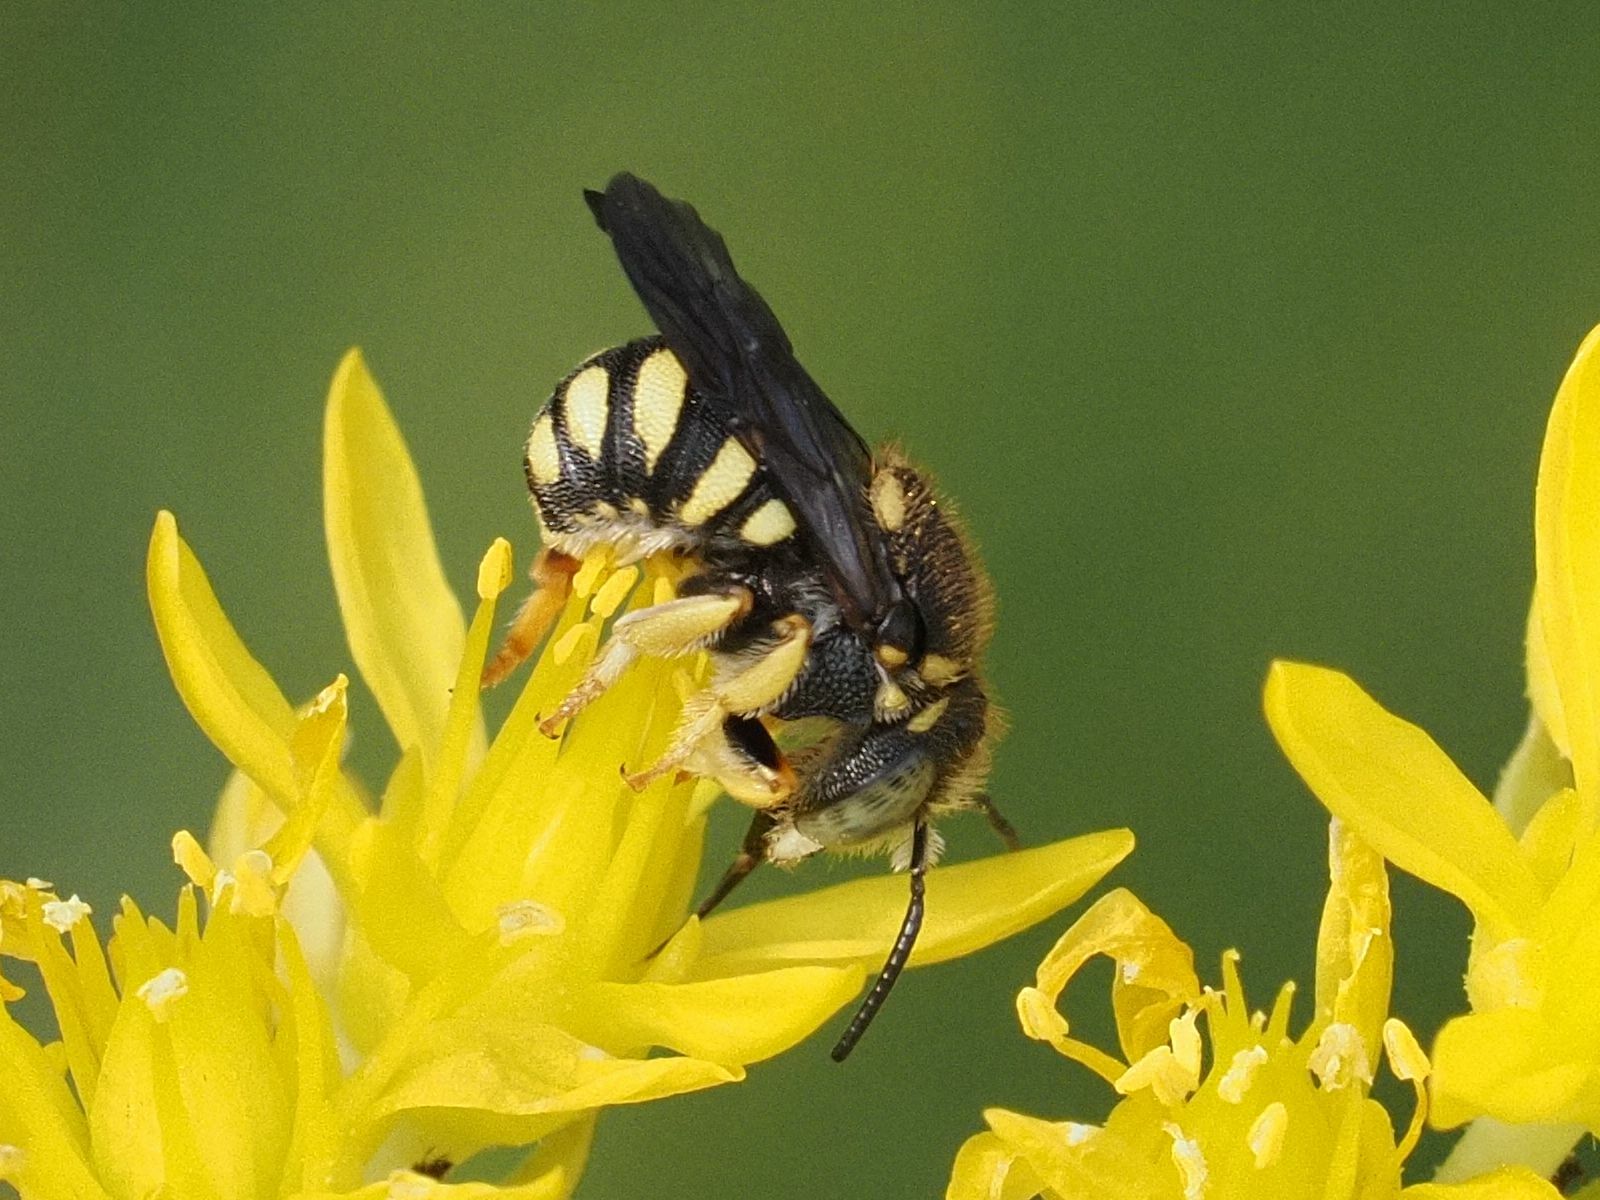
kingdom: Animalia
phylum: Arthropoda
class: Insecta
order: Hymenoptera
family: Megachilidae
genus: Anthidiellum
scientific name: Anthidiellum strigatum
